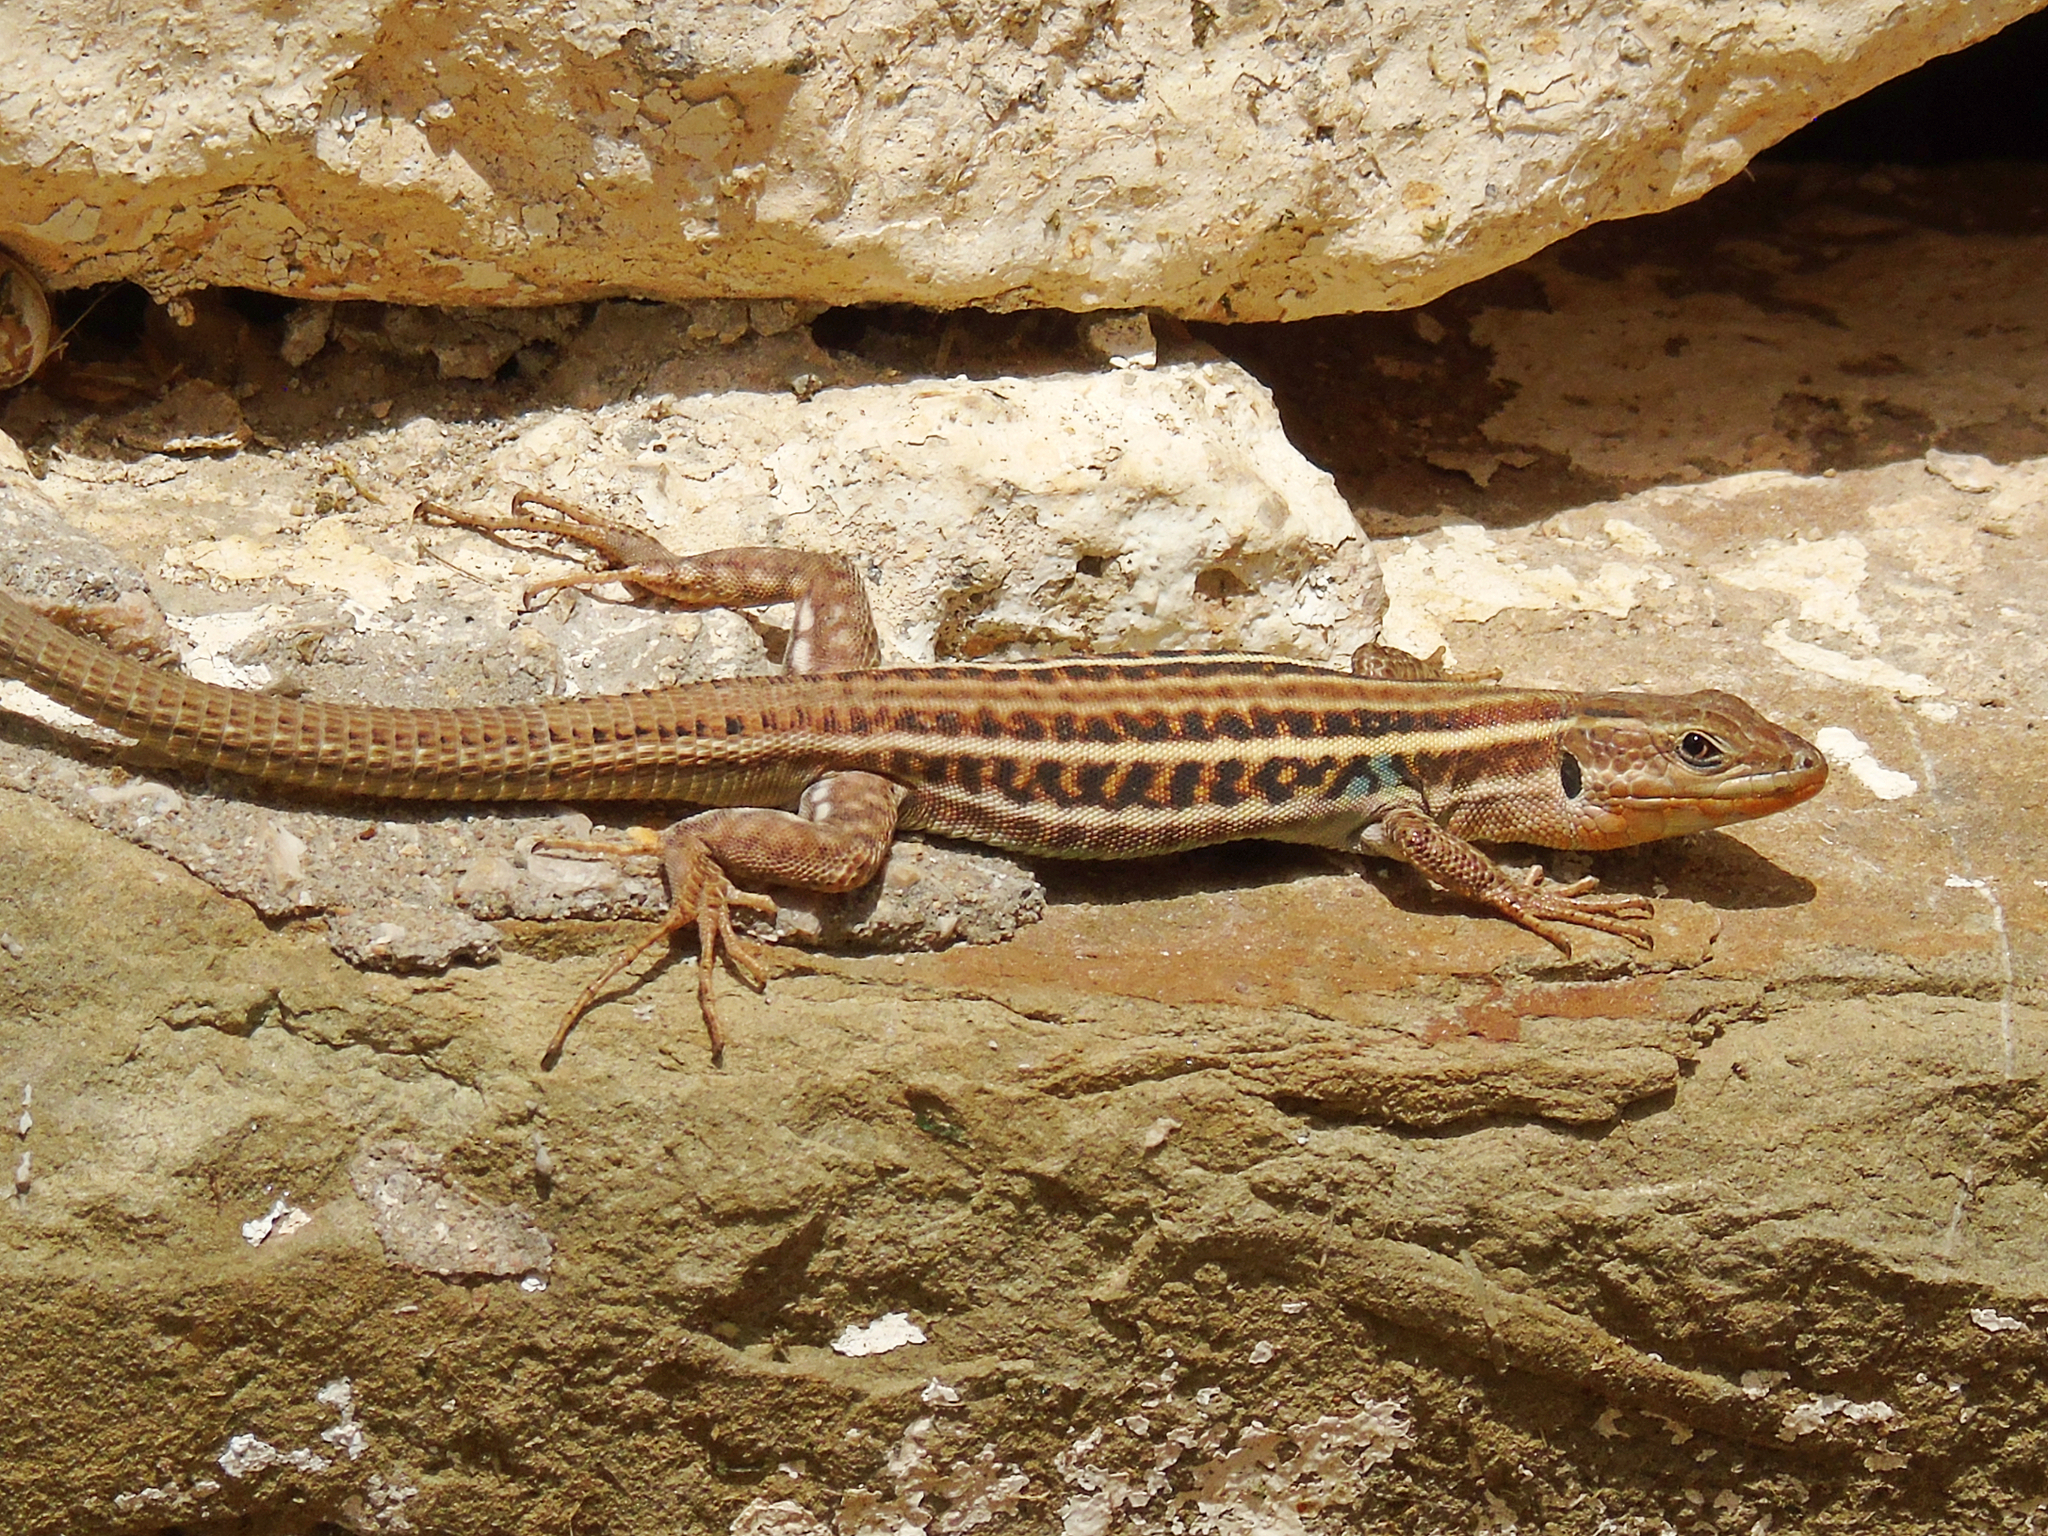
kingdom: Animalia
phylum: Chordata
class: Squamata
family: Lacertidae
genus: Podarcis
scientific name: Podarcis peloponnesiacus
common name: Peloponnese wall lizard
